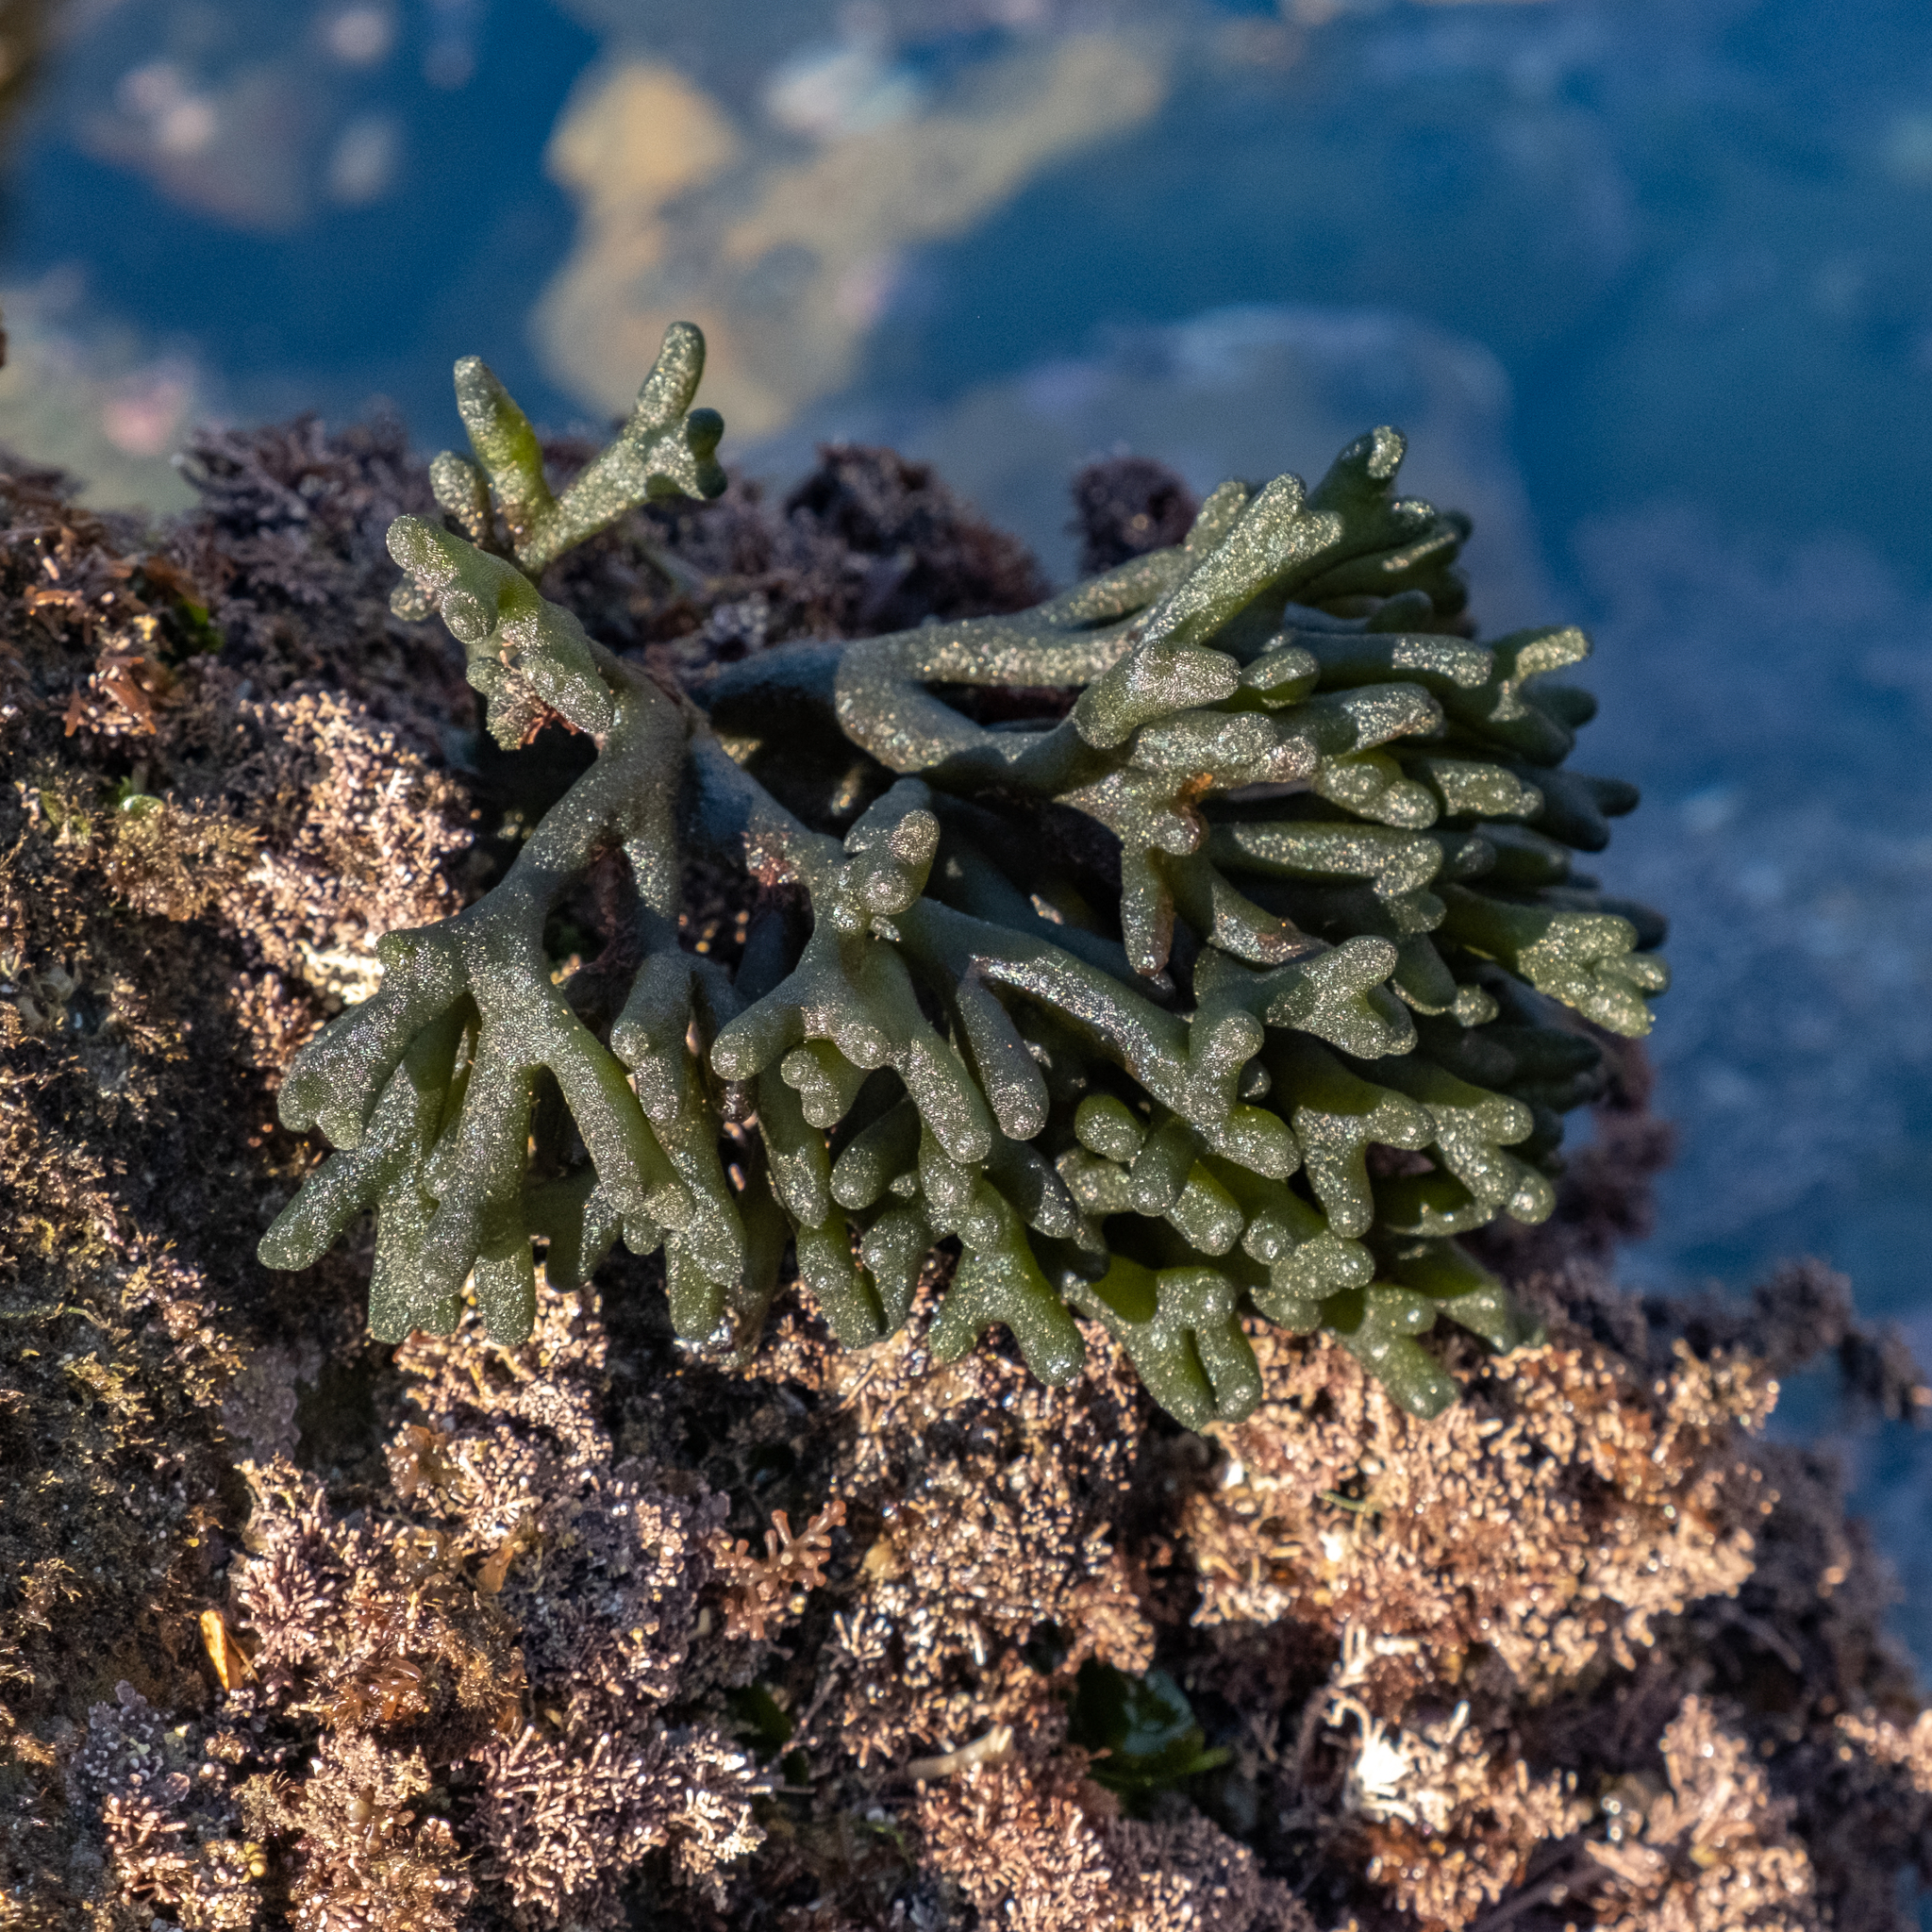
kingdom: Plantae
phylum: Chlorophyta
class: Ulvophyceae
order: Bryopsidales
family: Codiaceae
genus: Codium
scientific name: Codium fragile
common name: Dead man's fingers
